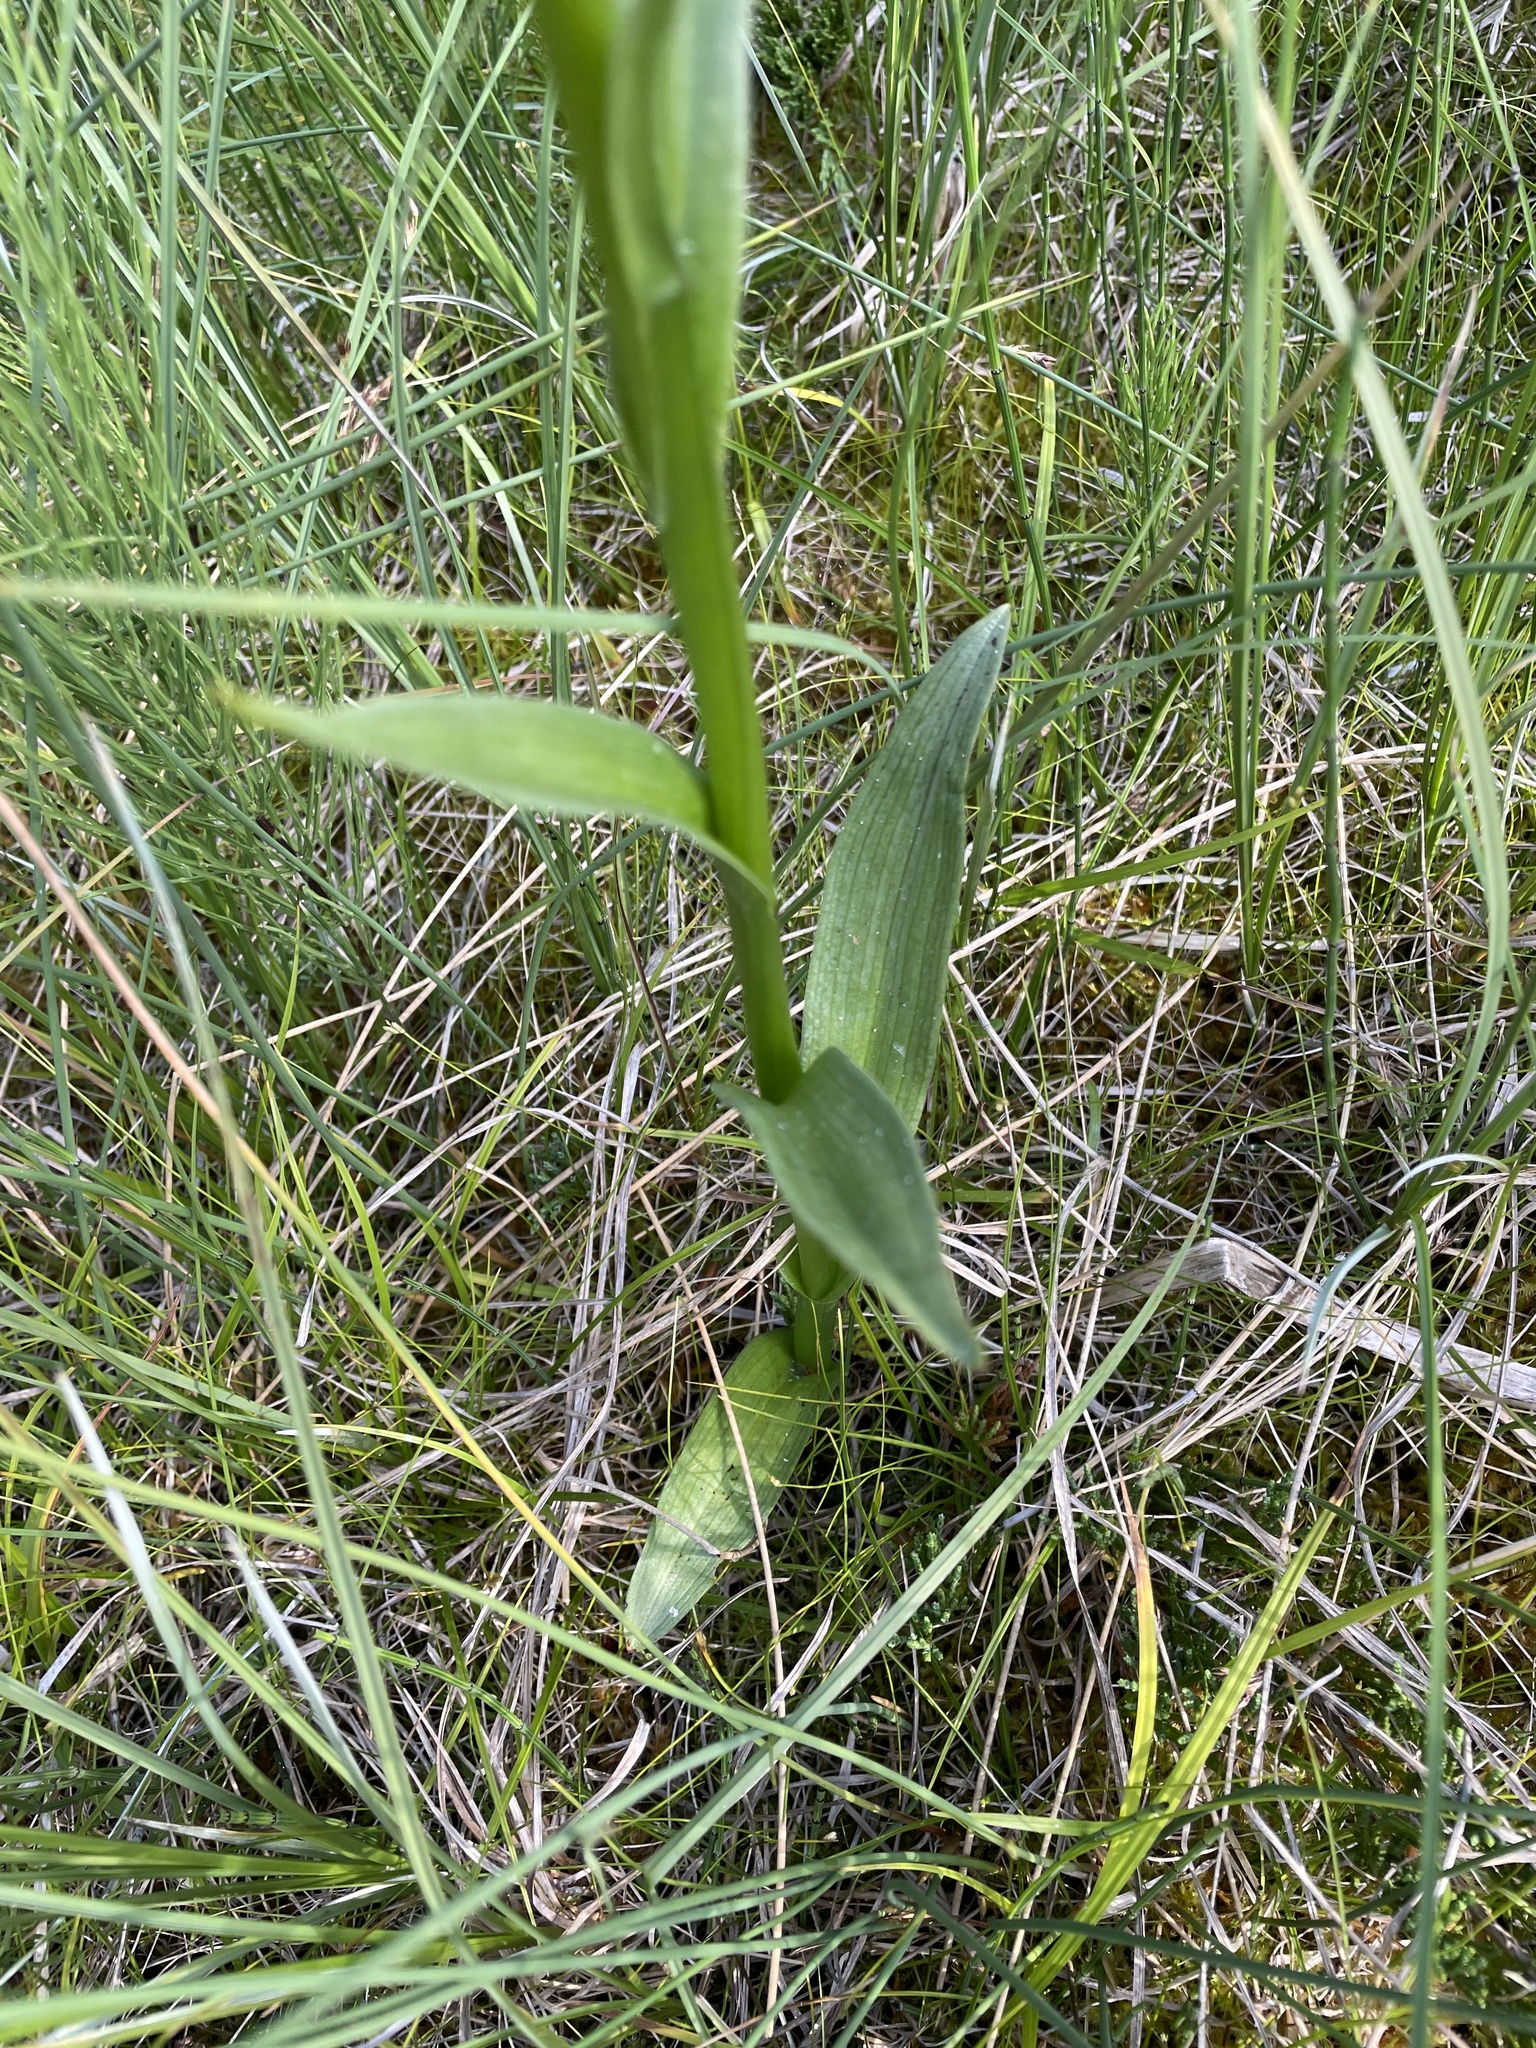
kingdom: Plantae
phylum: Tracheophyta
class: Liliopsida
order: Asparagales
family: Orchidaceae
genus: Platanthera
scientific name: Platanthera dilatata
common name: Bog candles
